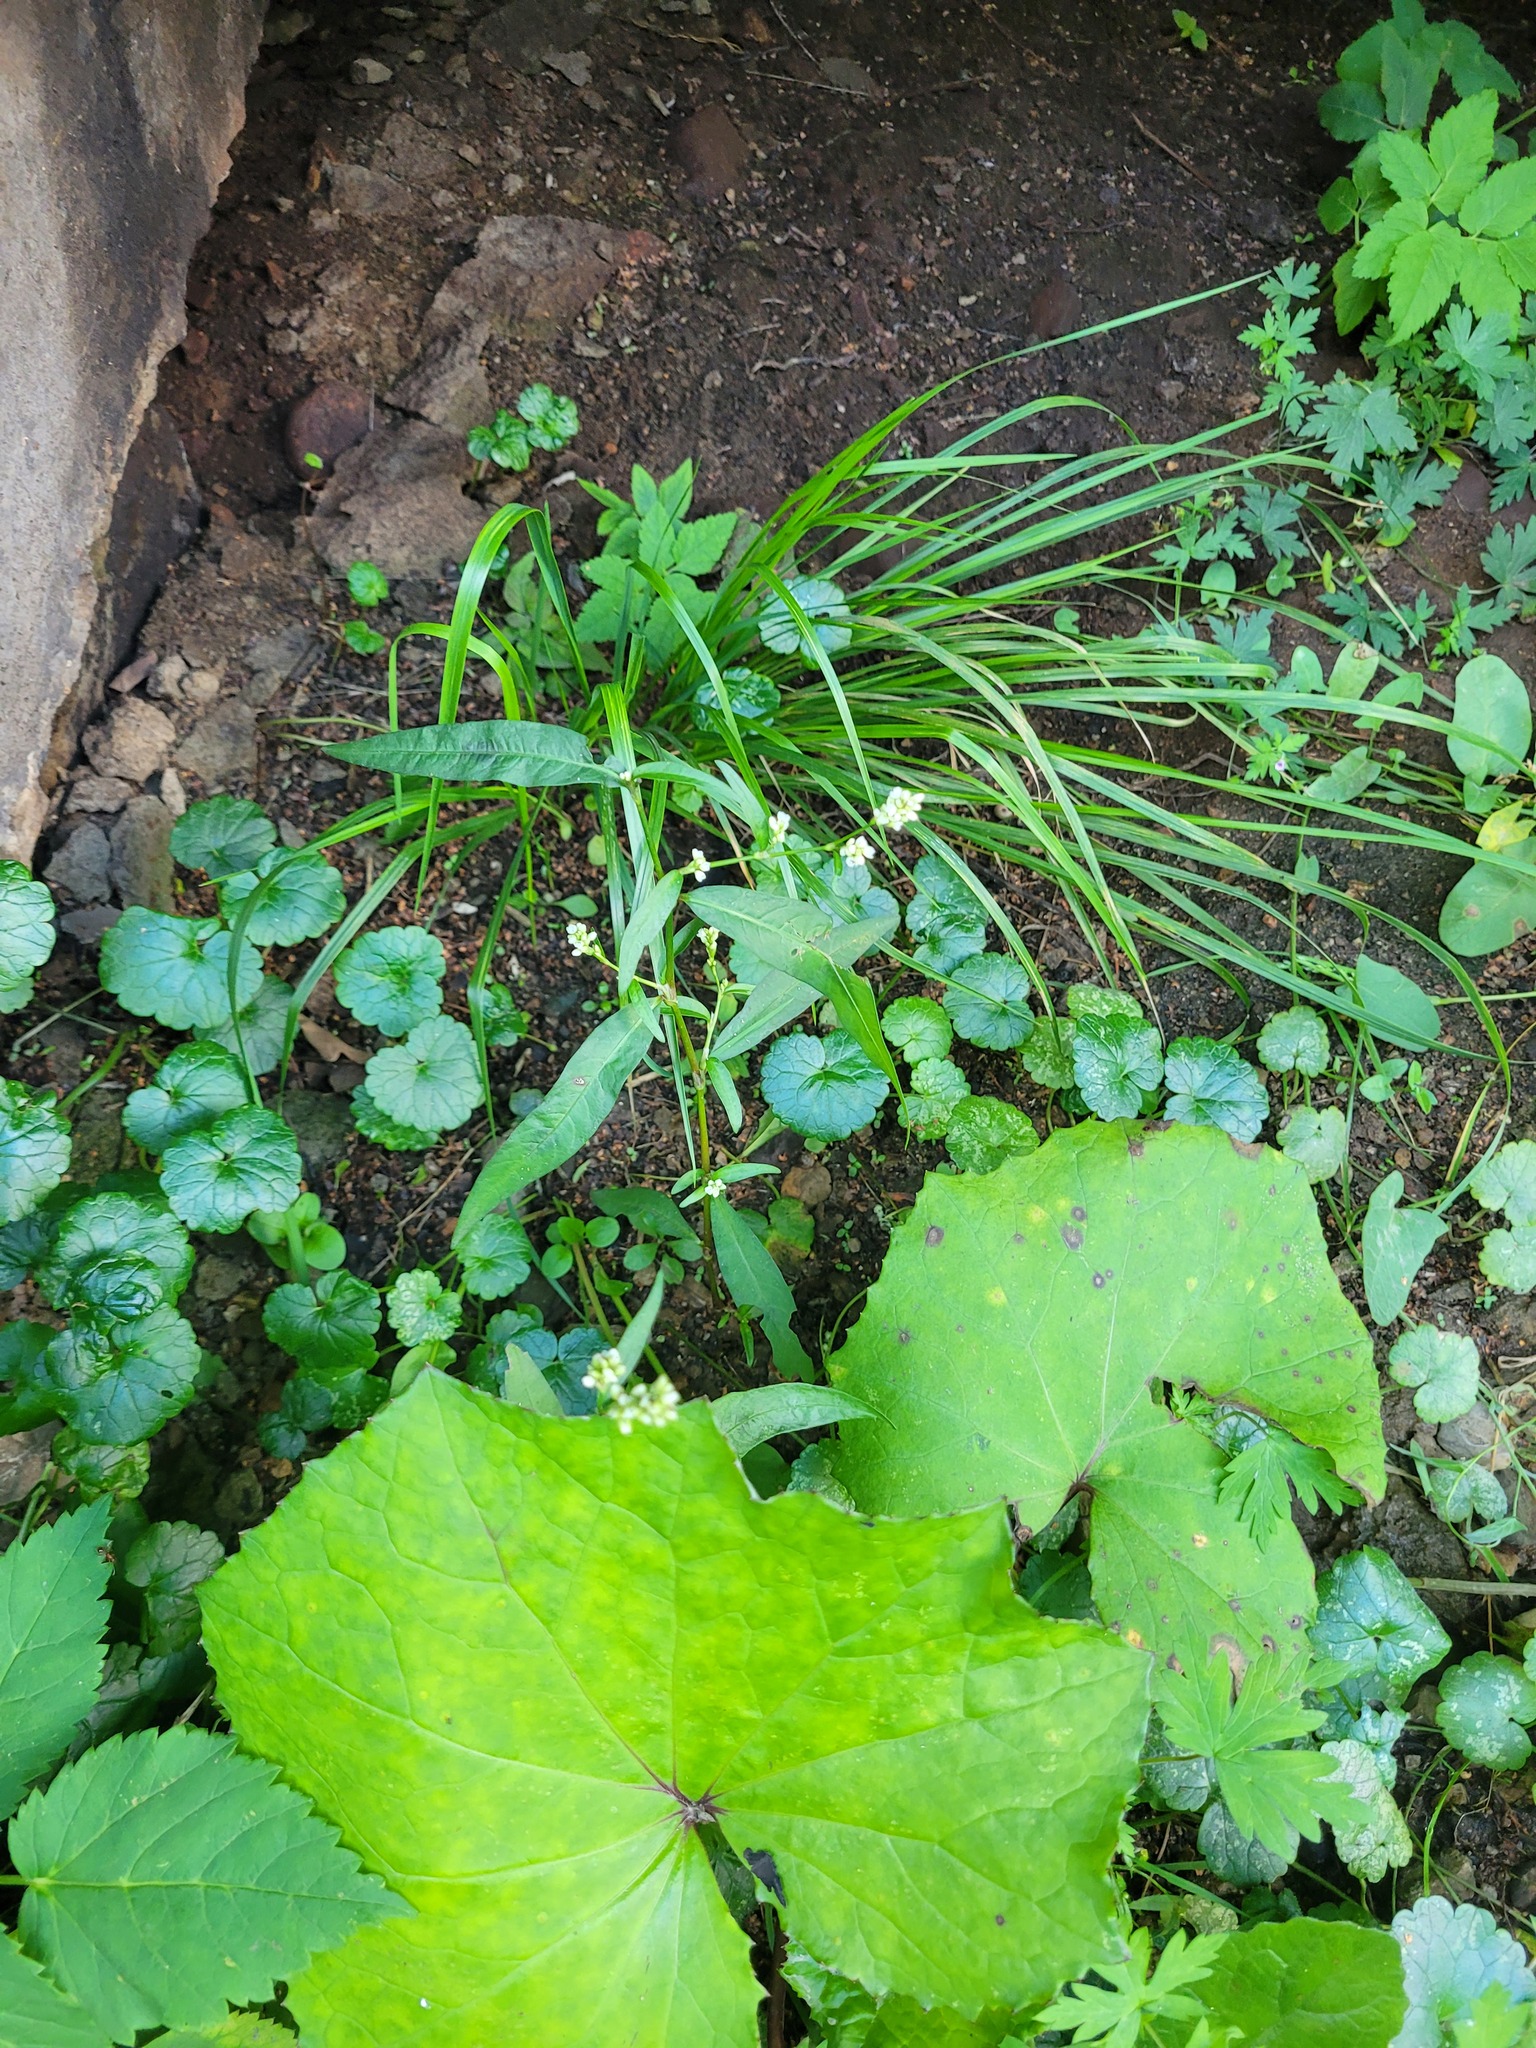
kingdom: Plantae
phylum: Tracheophyta
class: Magnoliopsida
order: Caryophyllales
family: Polygonaceae
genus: Persicaria
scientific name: Persicaria maculosa
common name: Redshank
